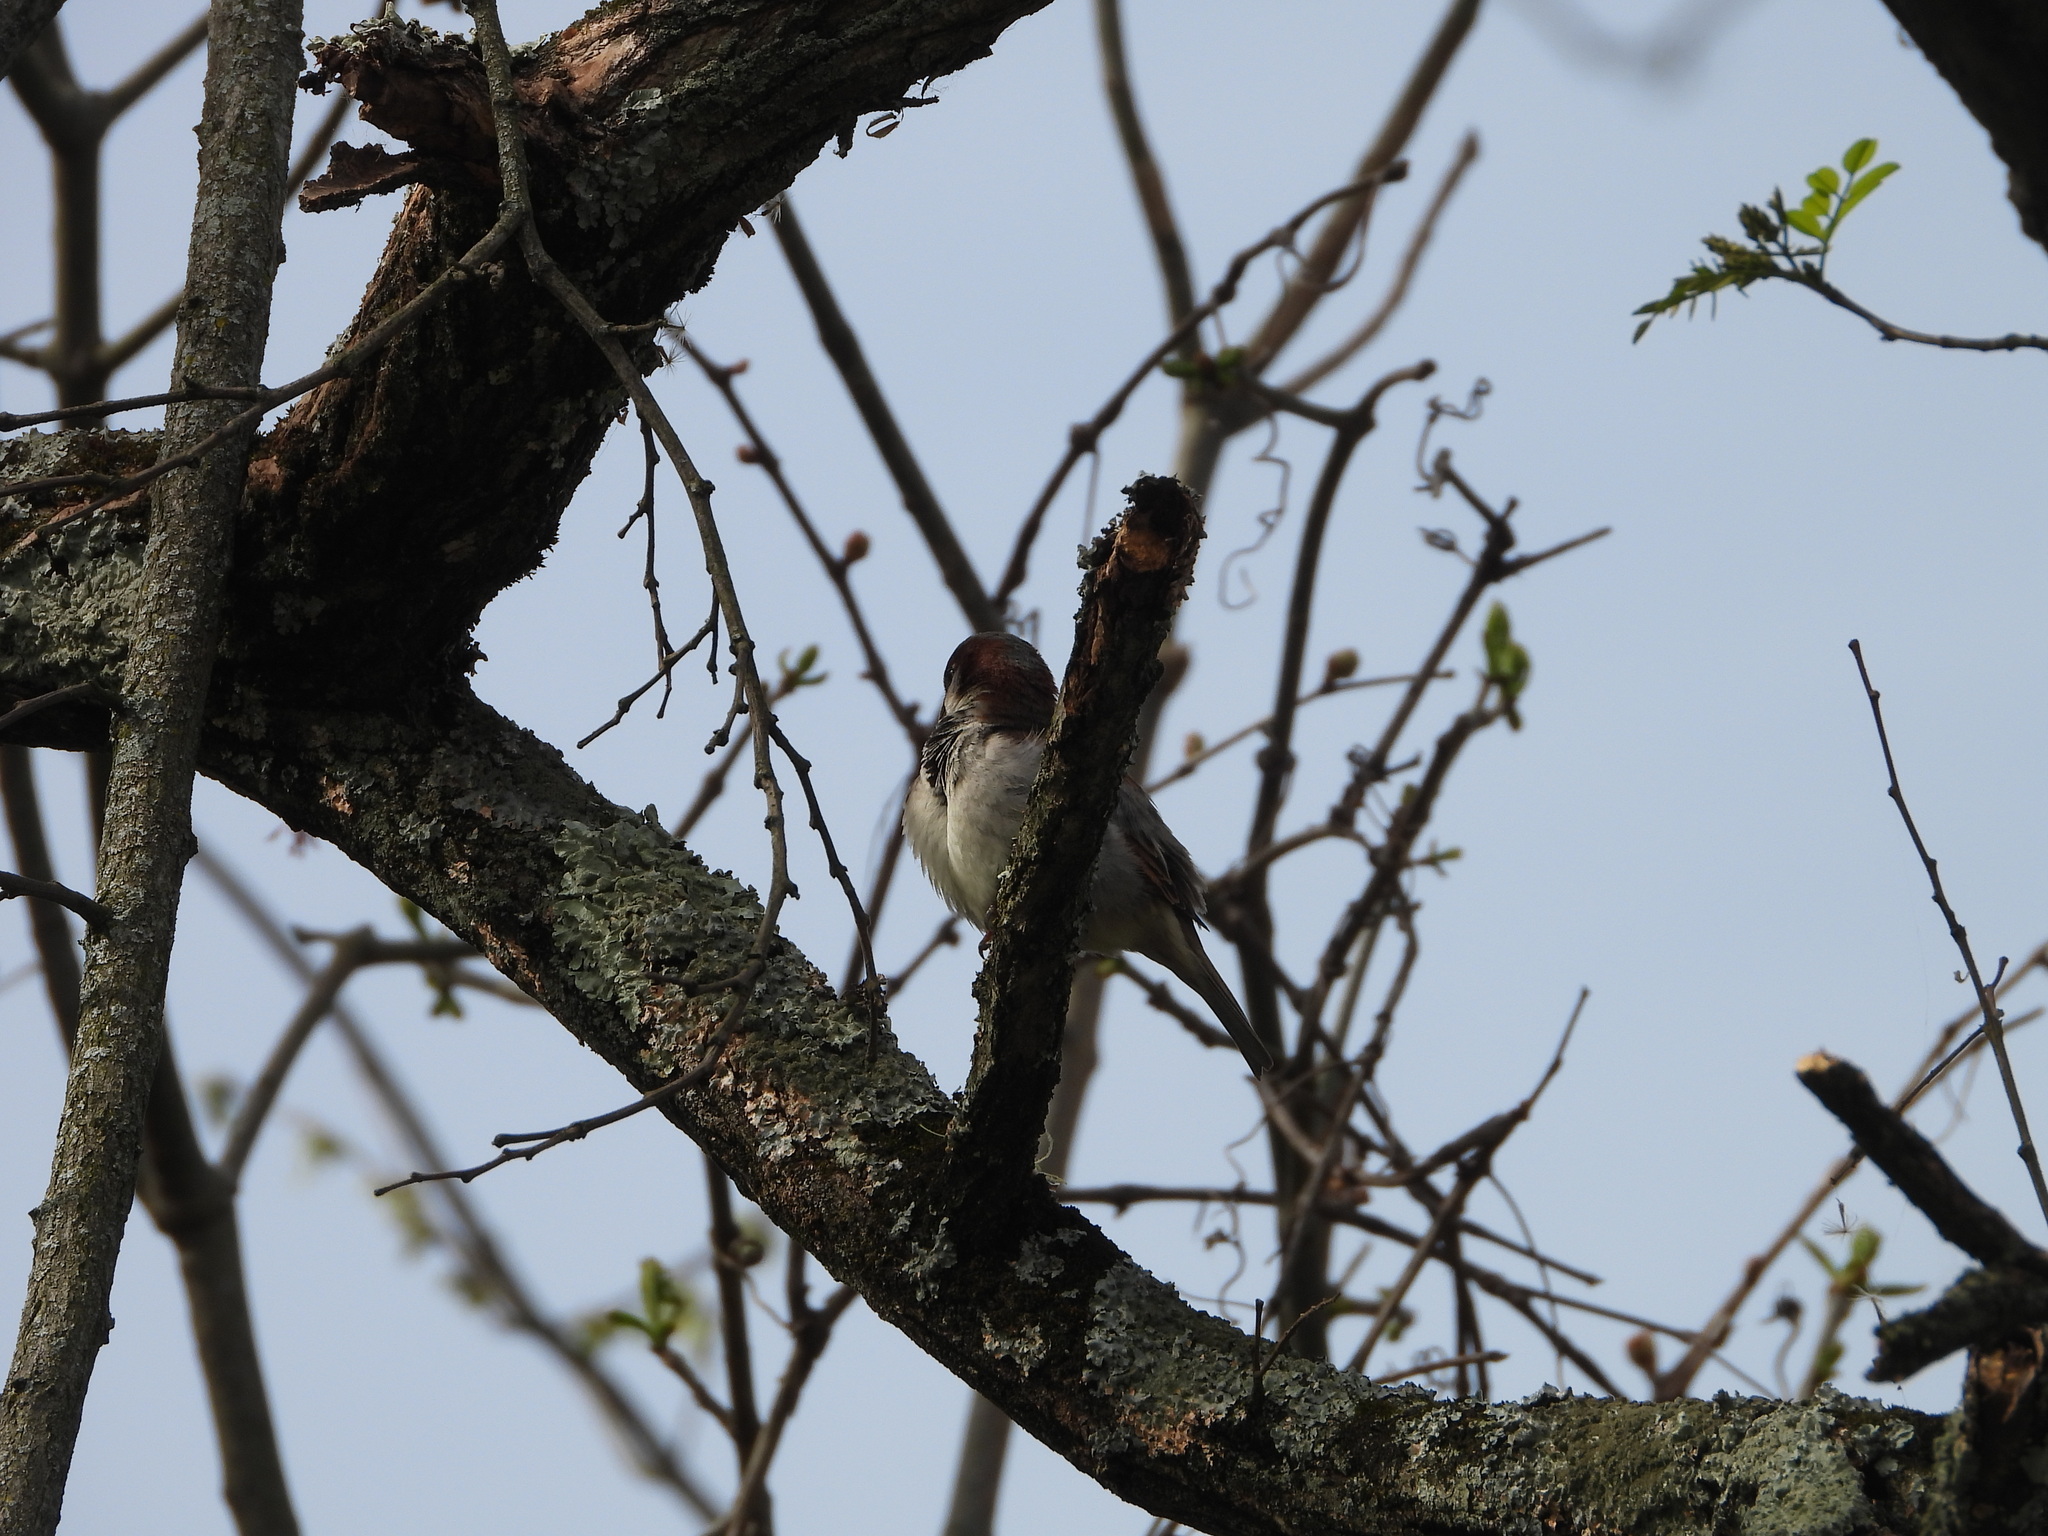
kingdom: Animalia
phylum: Chordata
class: Aves
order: Passeriformes
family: Passeridae
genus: Passer
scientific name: Passer domesticus
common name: House sparrow
